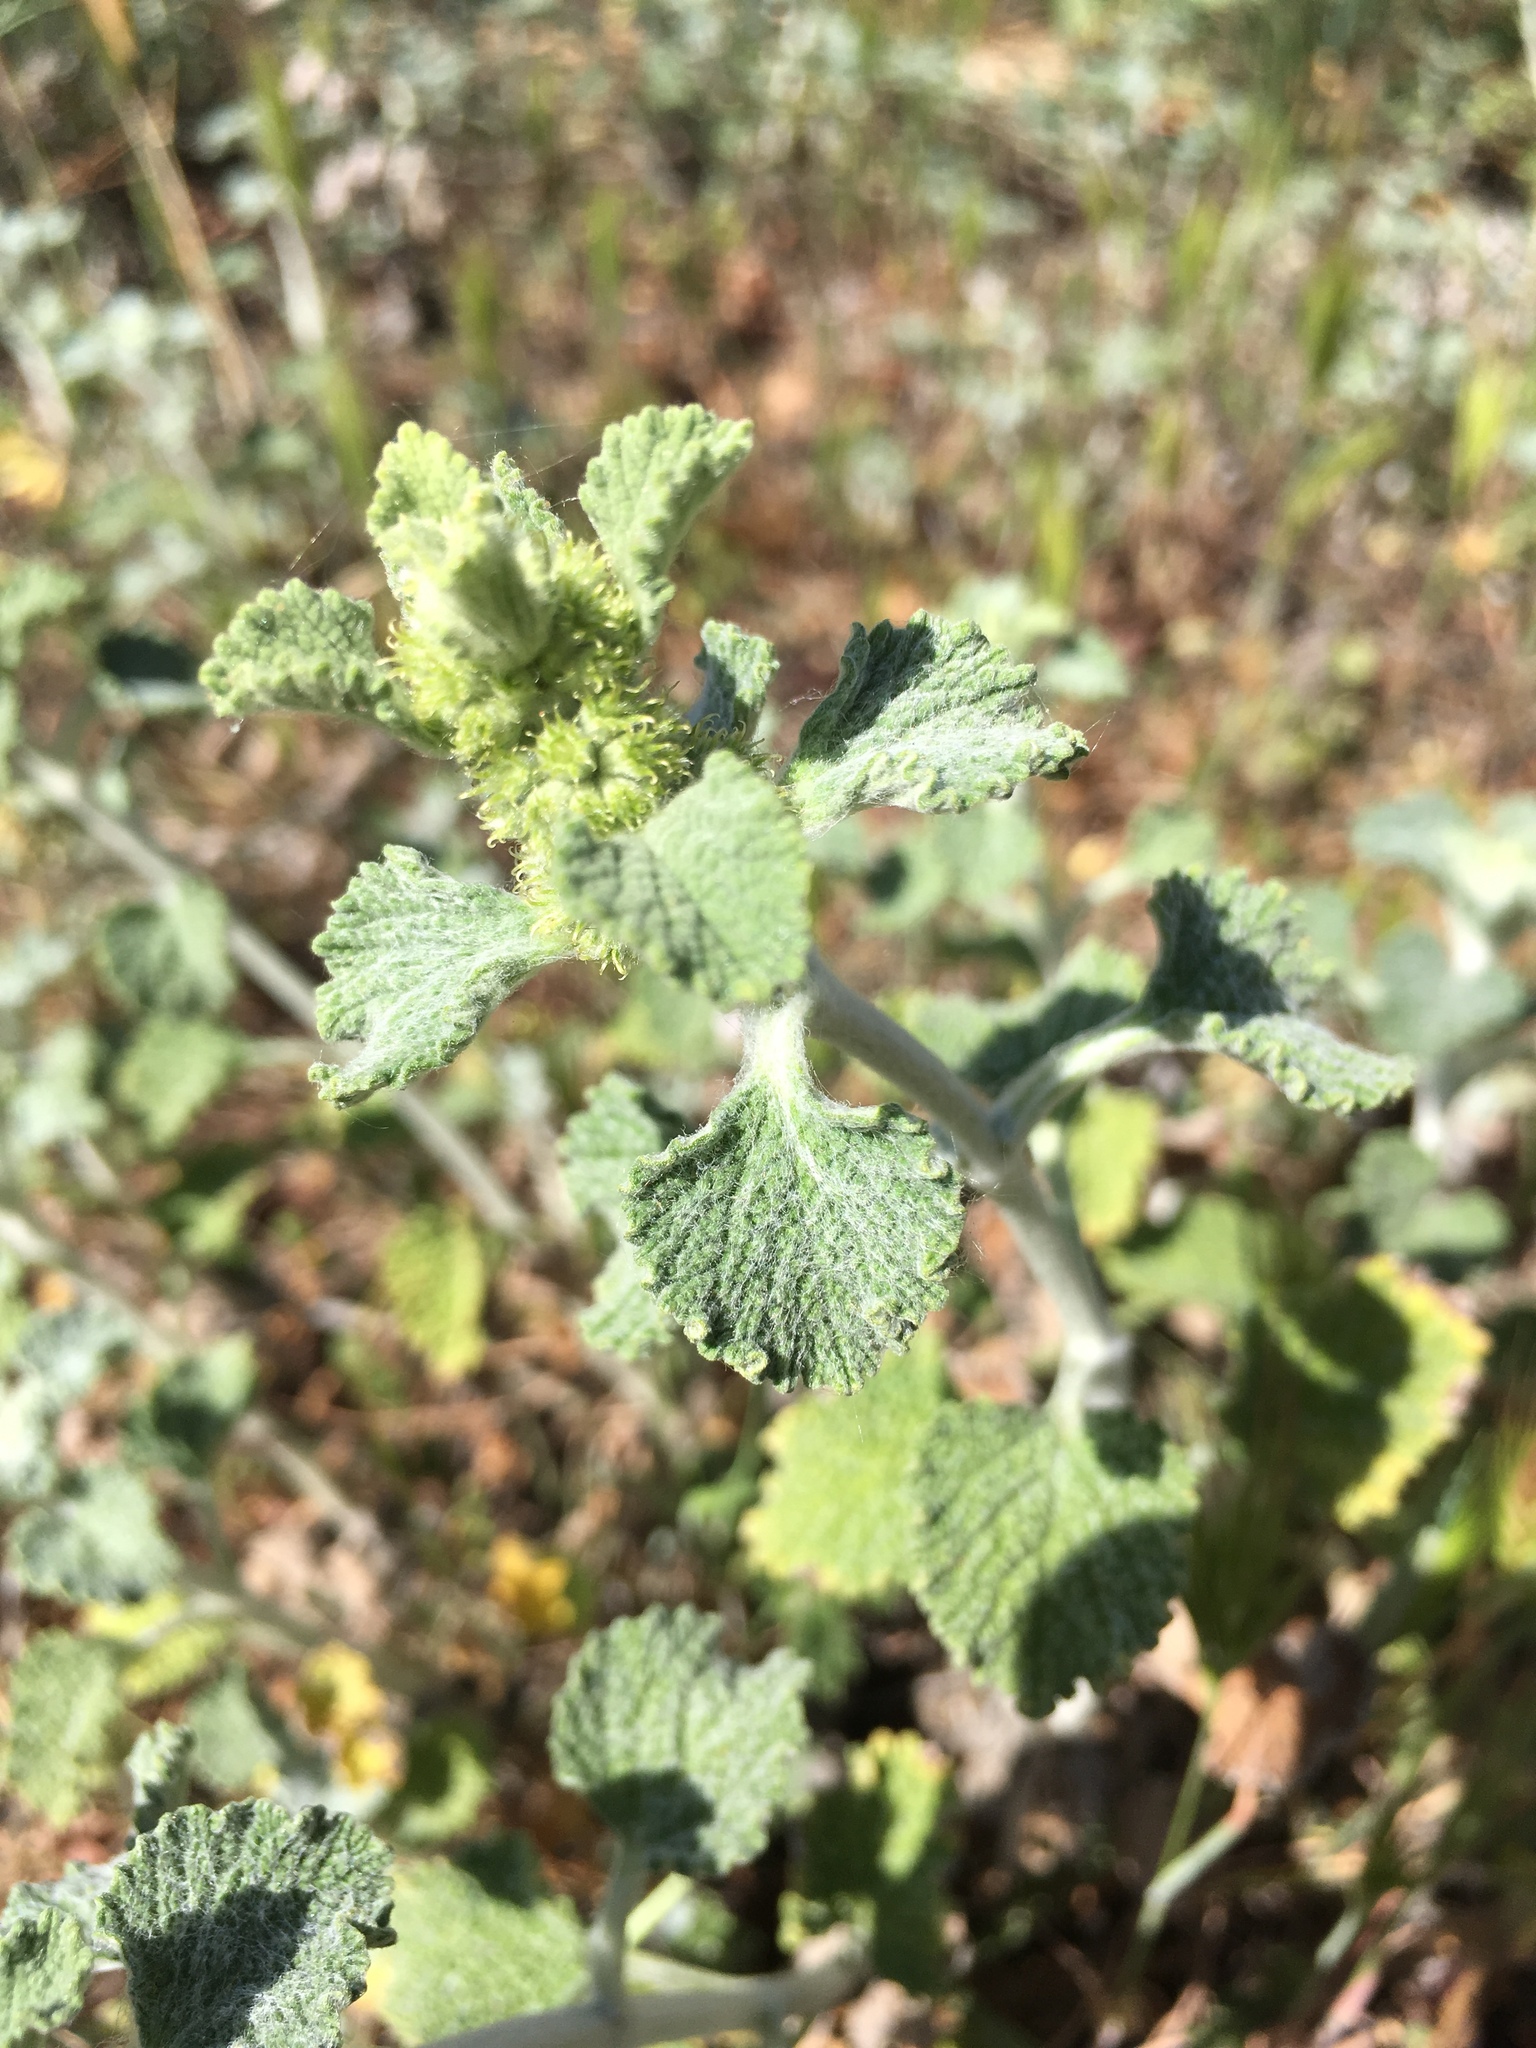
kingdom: Plantae
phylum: Tracheophyta
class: Magnoliopsida
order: Lamiales
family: Lamiaceae
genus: Marrubium
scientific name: Marrubium vulgare
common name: Horehound
